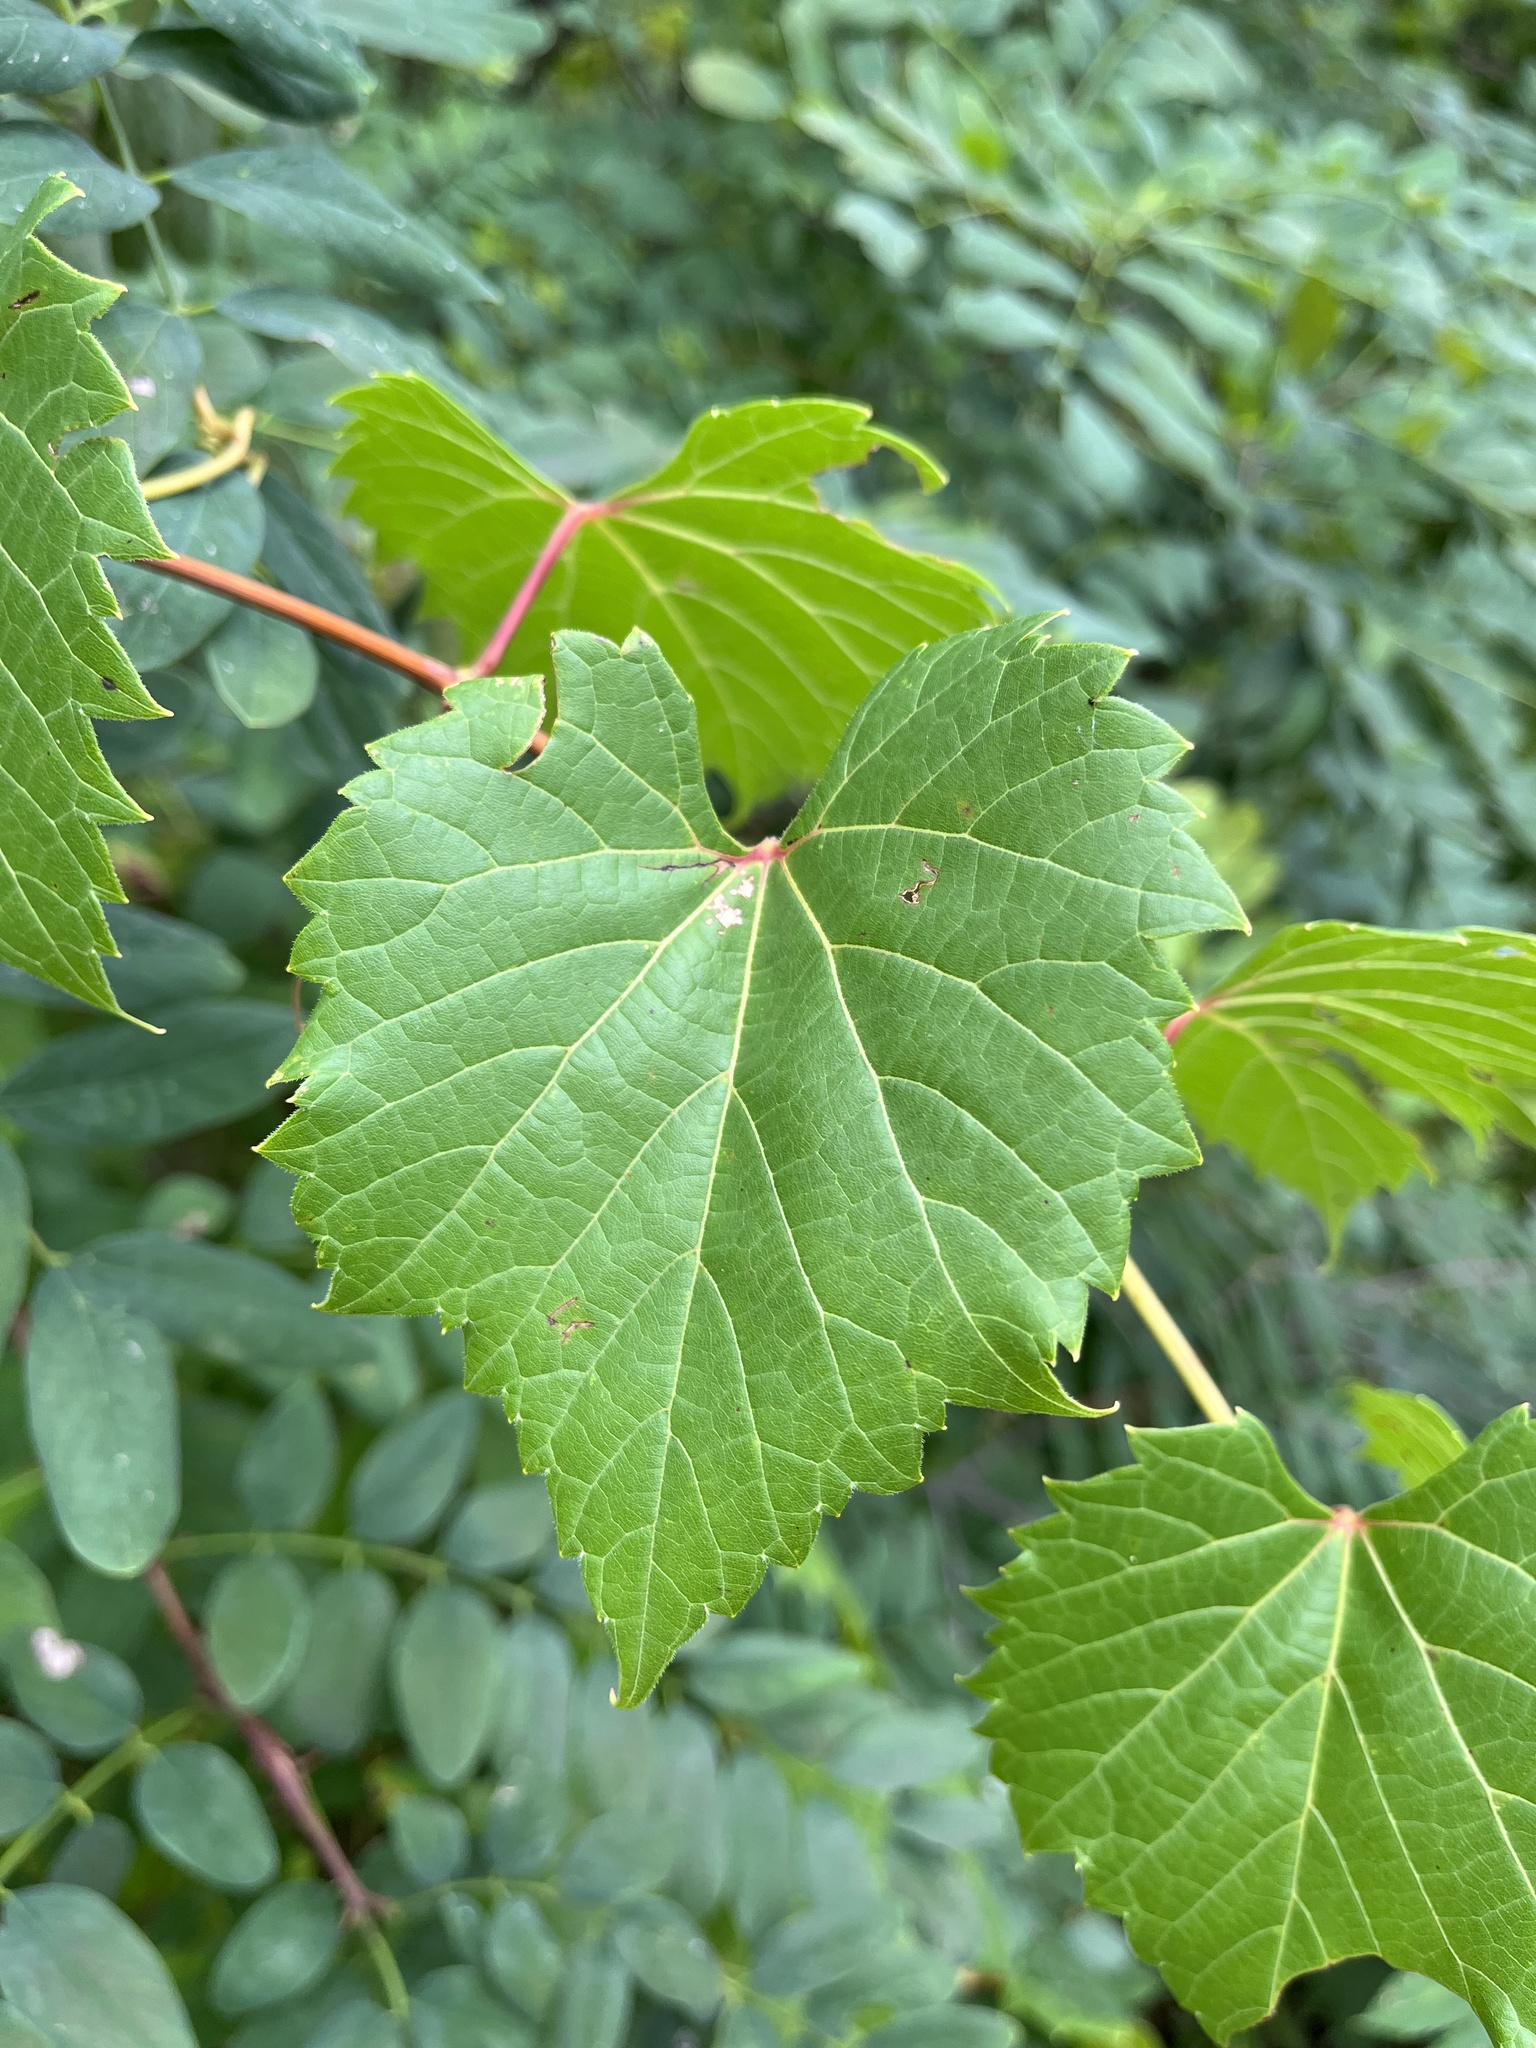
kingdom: Plantae
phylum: Tracheophyta
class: Magnoliopsida
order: Vitales
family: Vitaceae
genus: Vitis
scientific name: Vitis riparia
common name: Frost grape
